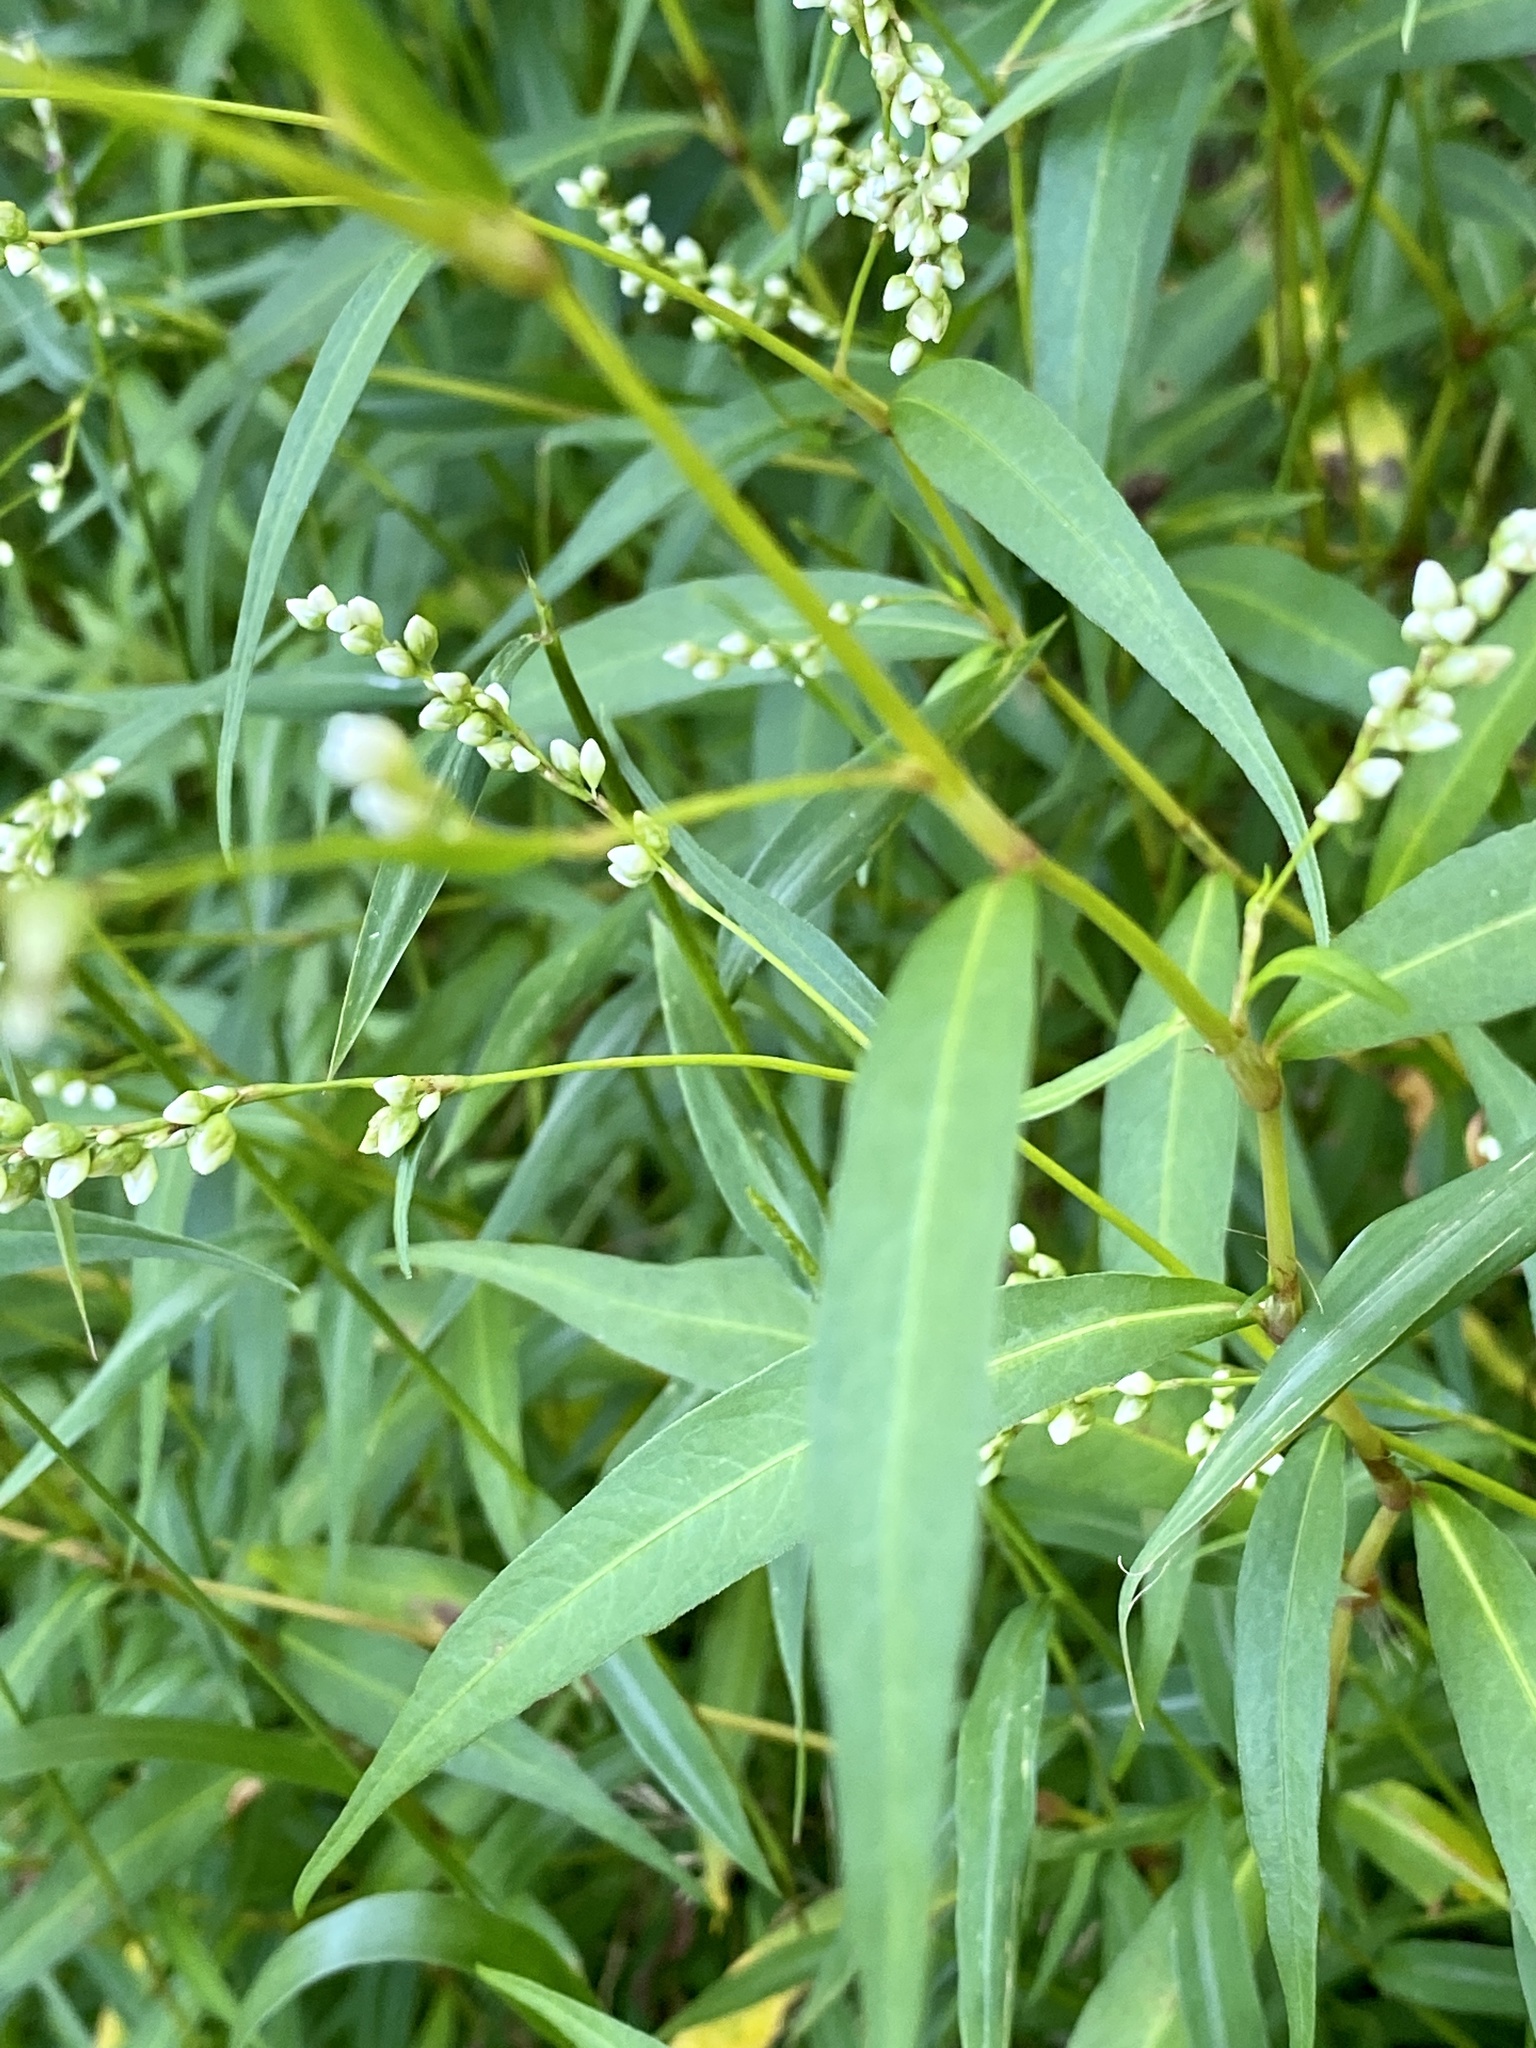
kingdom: Plantae
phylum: Tracheophyta
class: Magnoliopsida
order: Caryophyllales
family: Polygonaceae
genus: Persicaria
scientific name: Persicaria punctata
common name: Dotted smartweed
